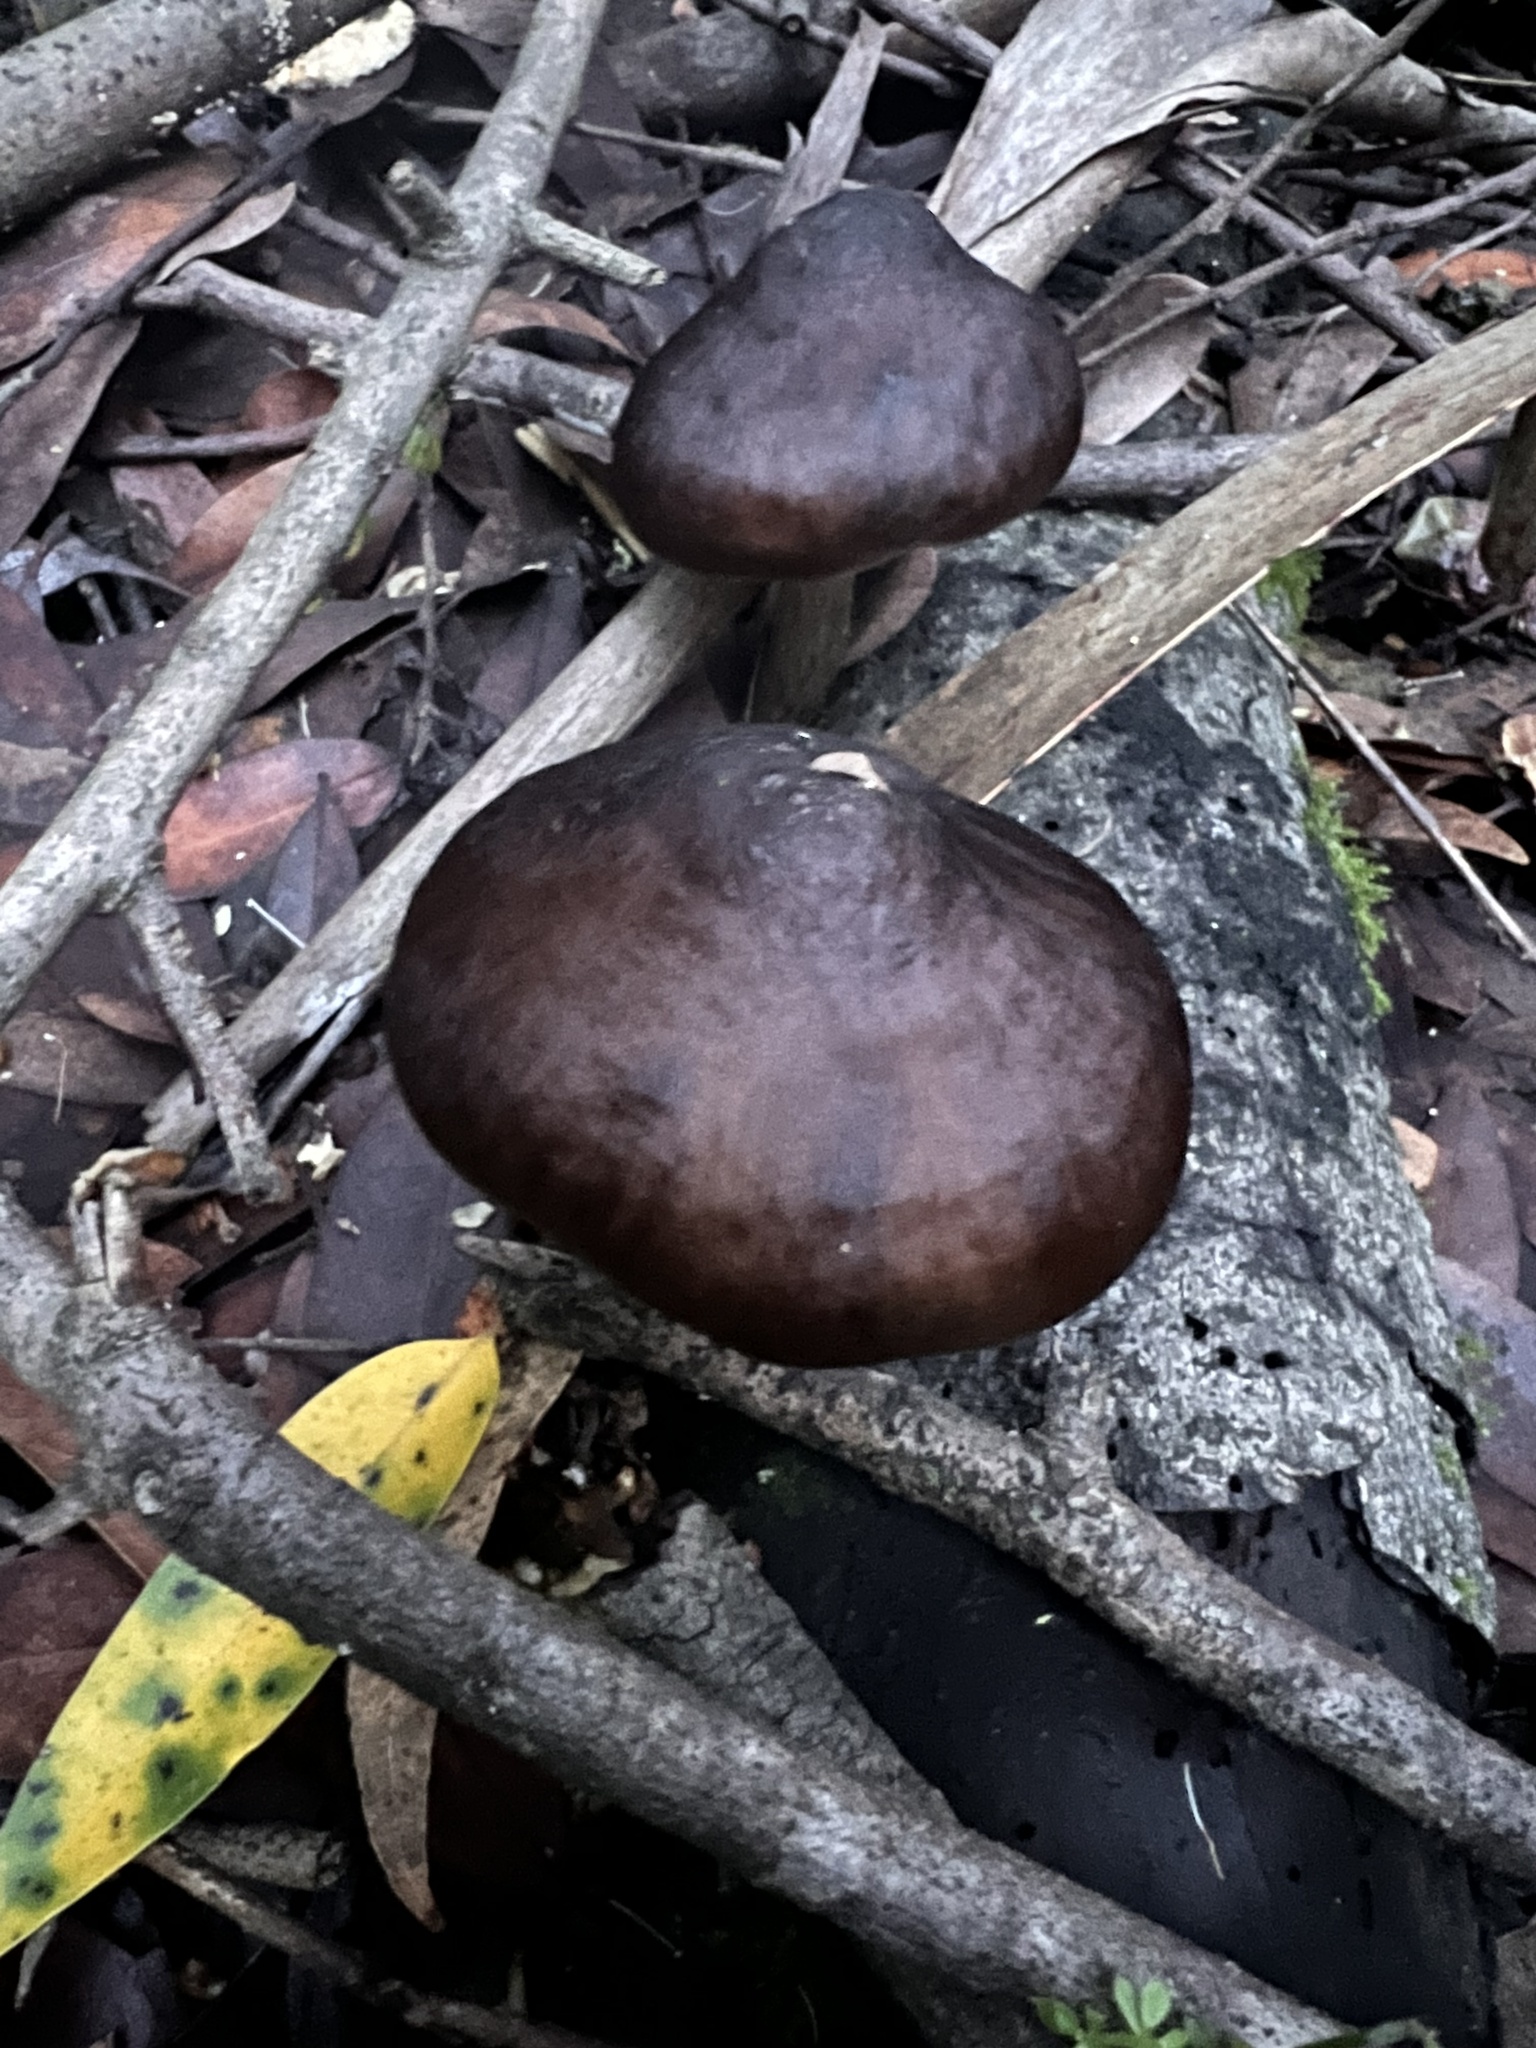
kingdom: Fungi
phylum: Basidiomycota
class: Agaricomycetes
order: Agaricales
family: Pluteaceae
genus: Pluteus
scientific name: Pluteus exilis
